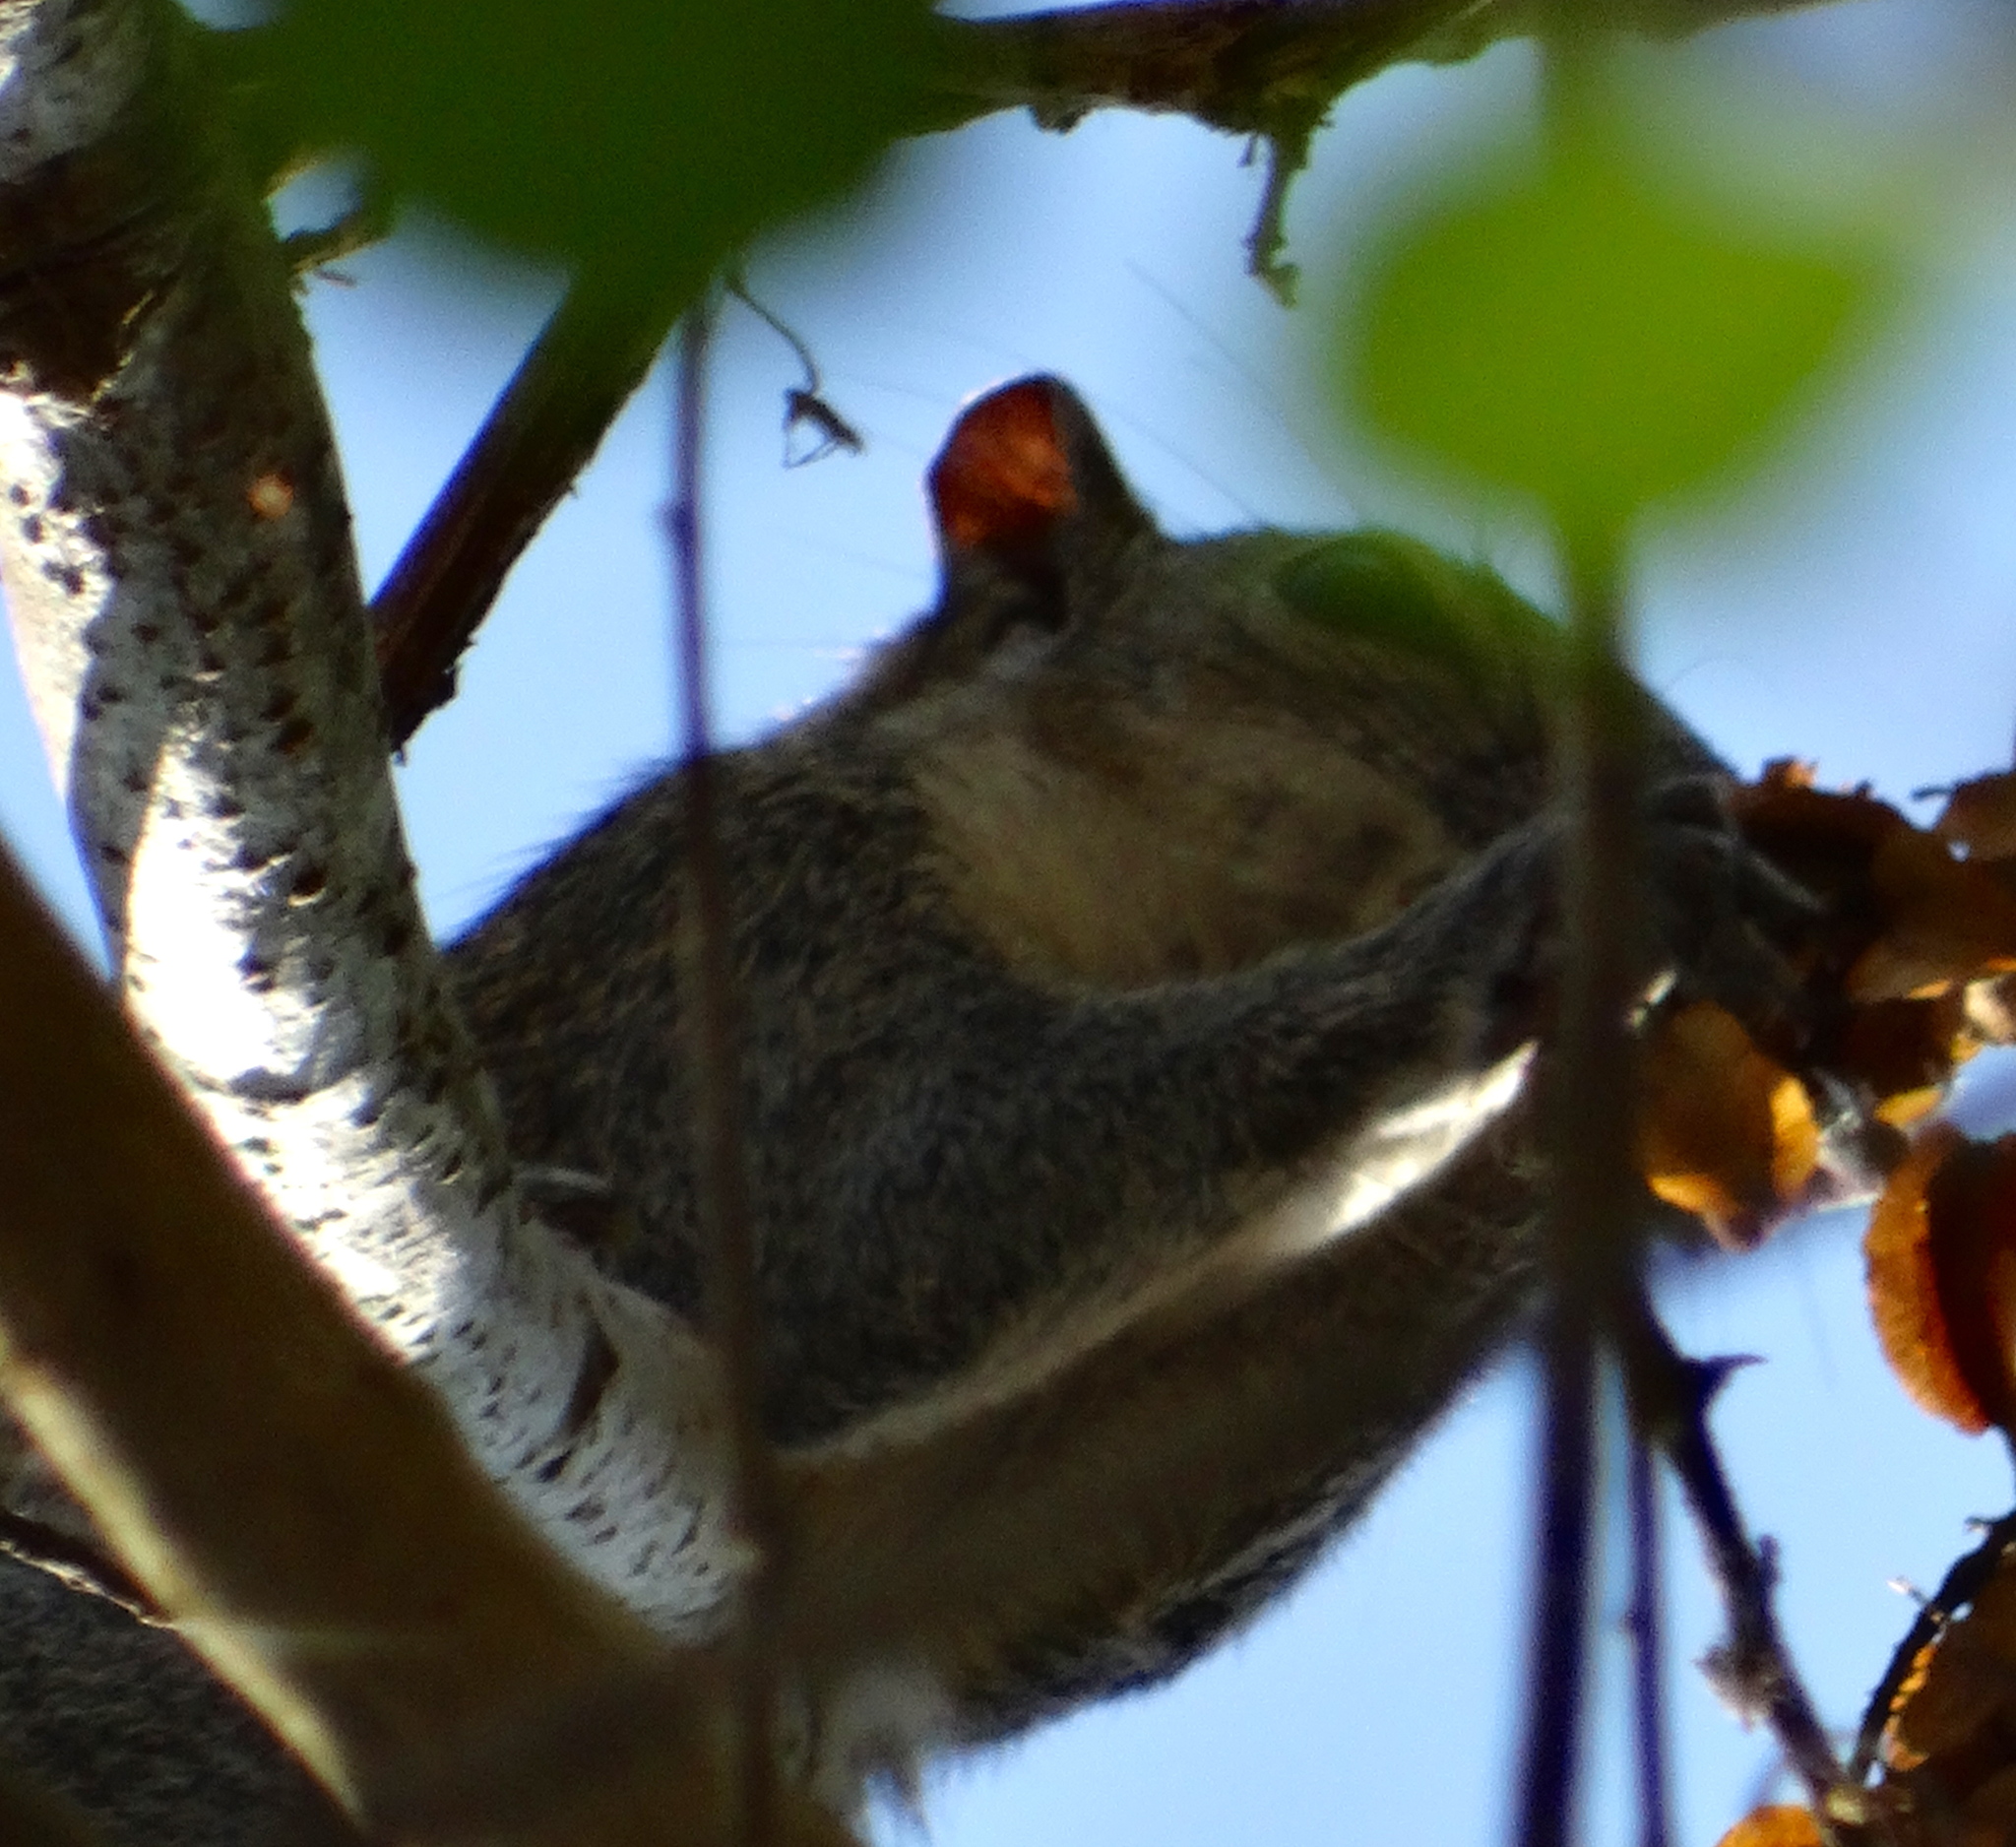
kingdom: Animalia
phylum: Chordata
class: Mammalia
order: Rodentia
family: Sciuridae
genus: Sciurus
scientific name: Sciurus colliaei
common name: Collie's squirrel
